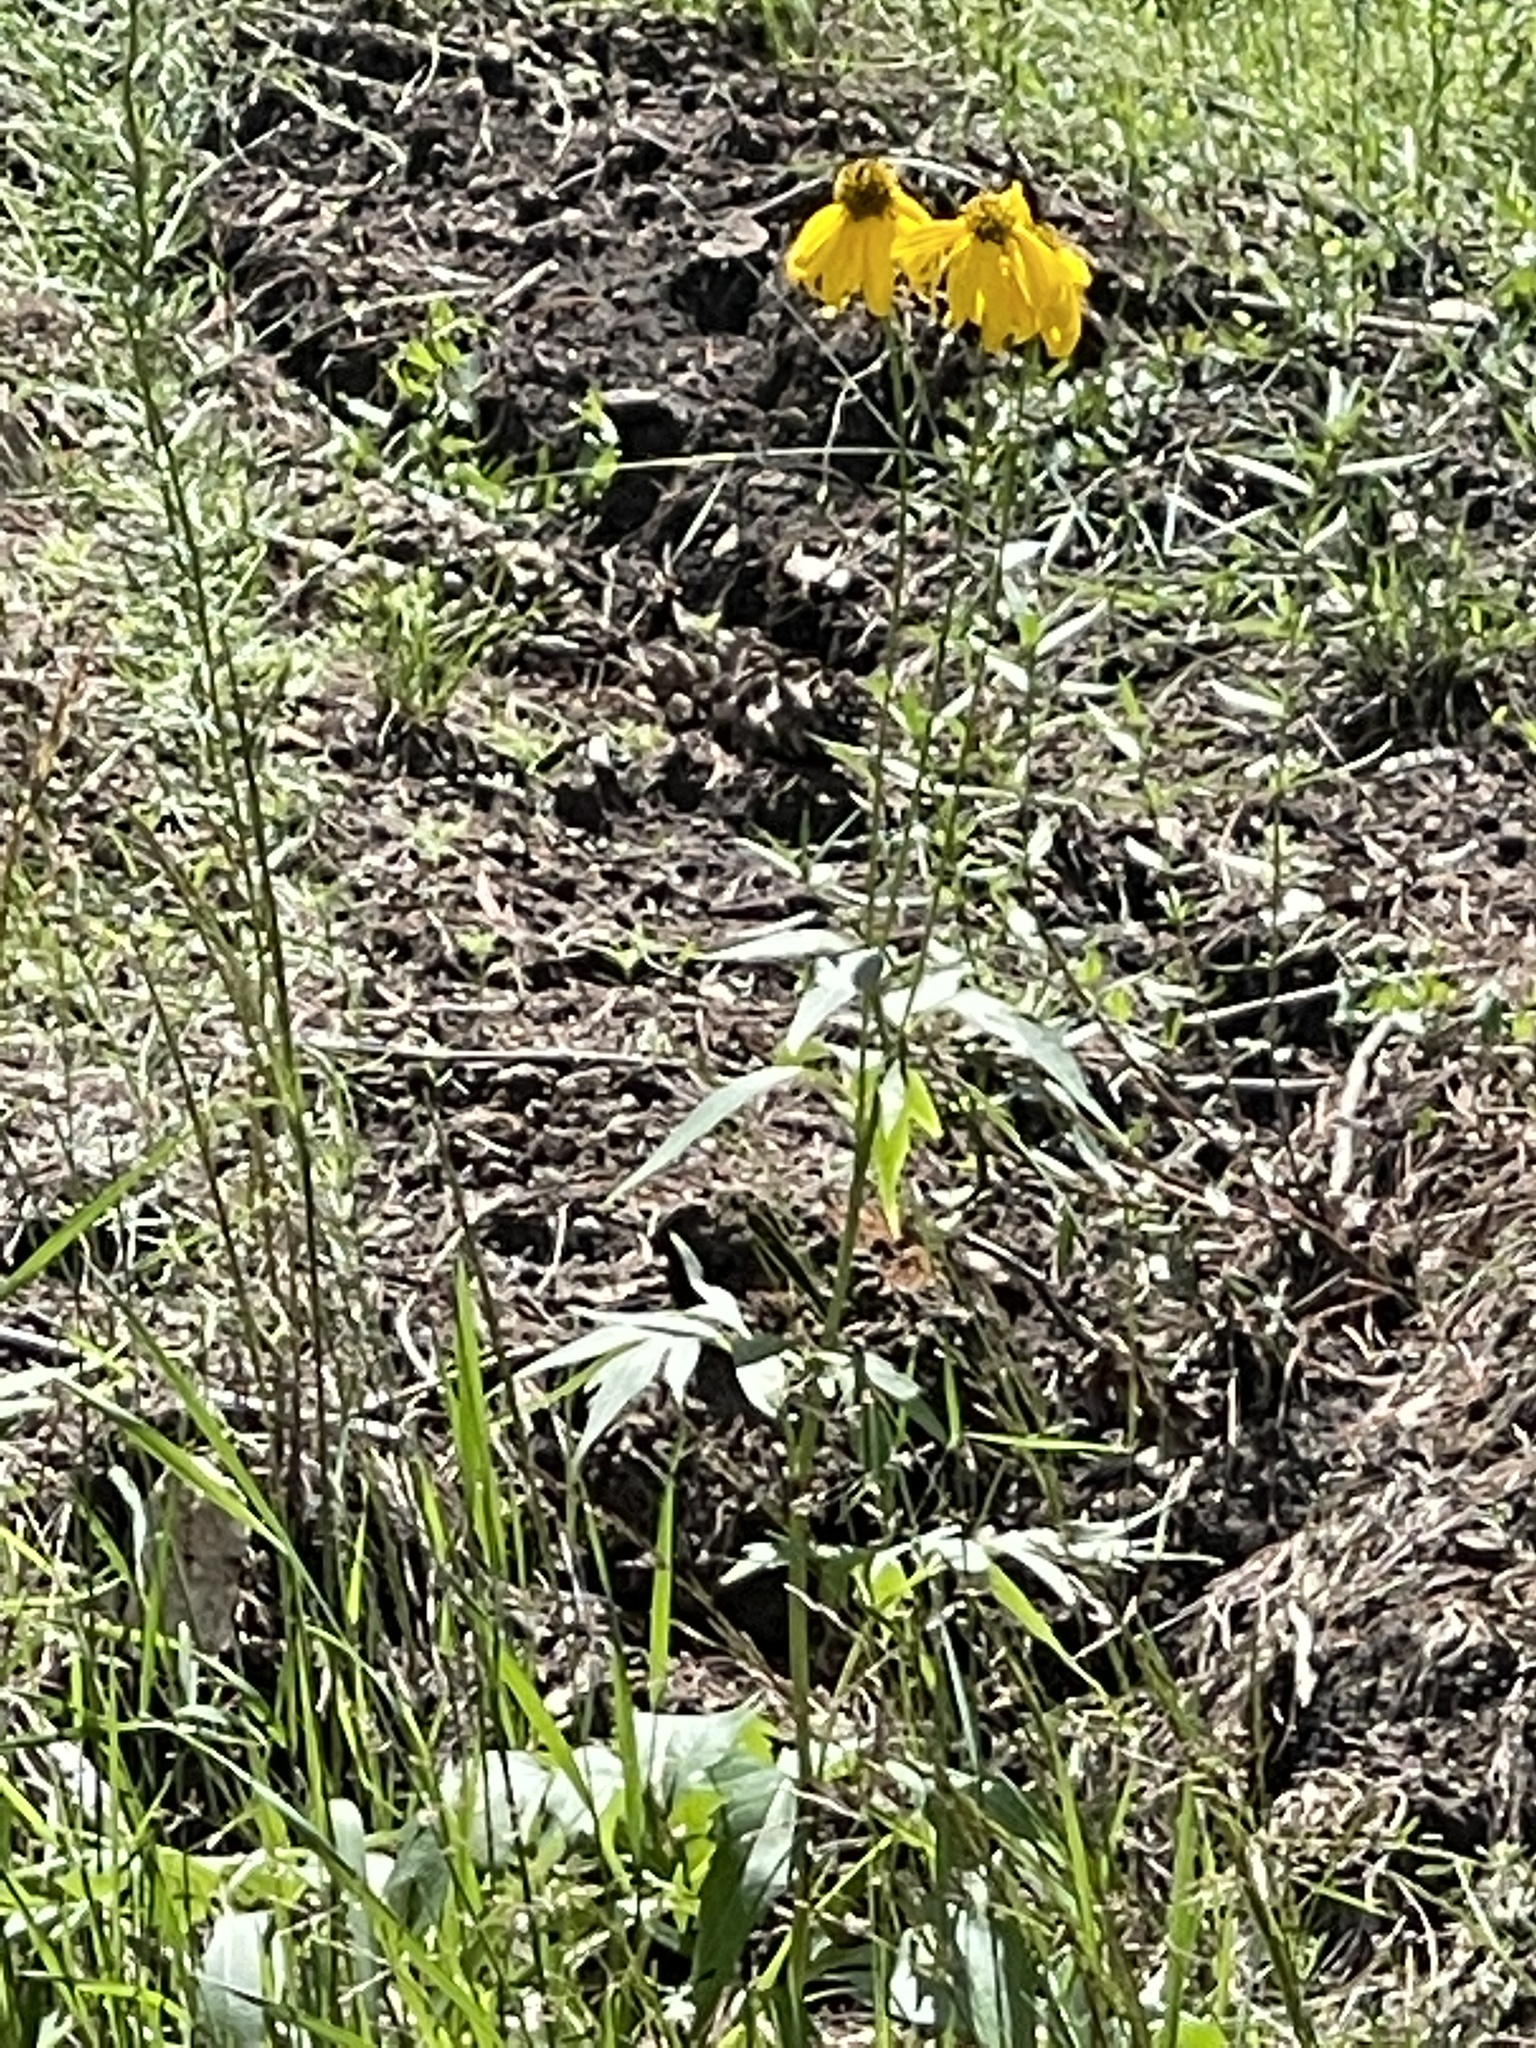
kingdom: Plantae
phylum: Tracheophyta
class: Magnoliopsida
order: Asterales
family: Asteraceae
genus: Rudbeckia
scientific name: Rudbeckia laciniata
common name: Coneflower
